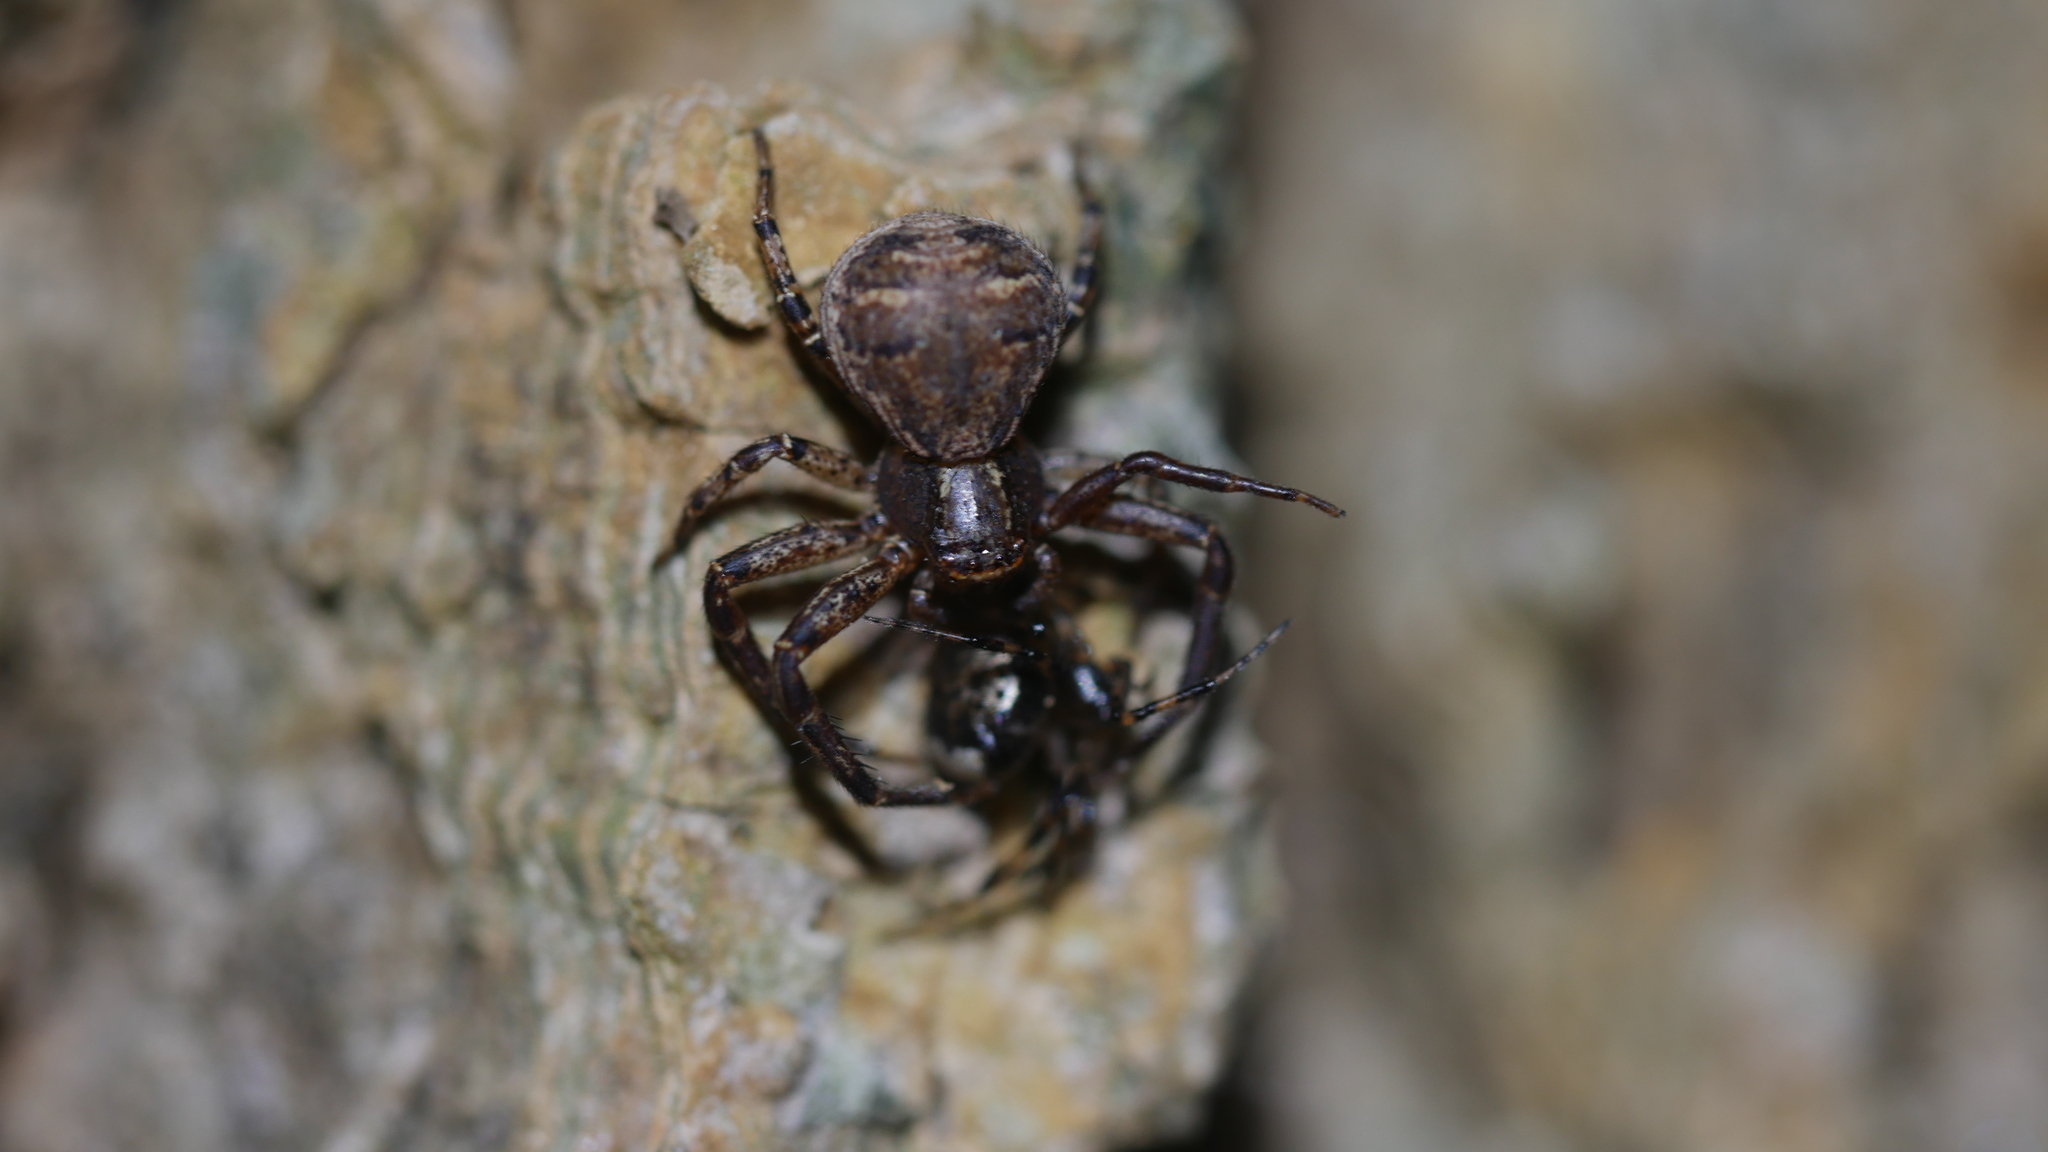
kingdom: Animalia
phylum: Arthropoda
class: Arachnida
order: Araneae
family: Thomisidae
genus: Xysticus
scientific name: Xysticus
